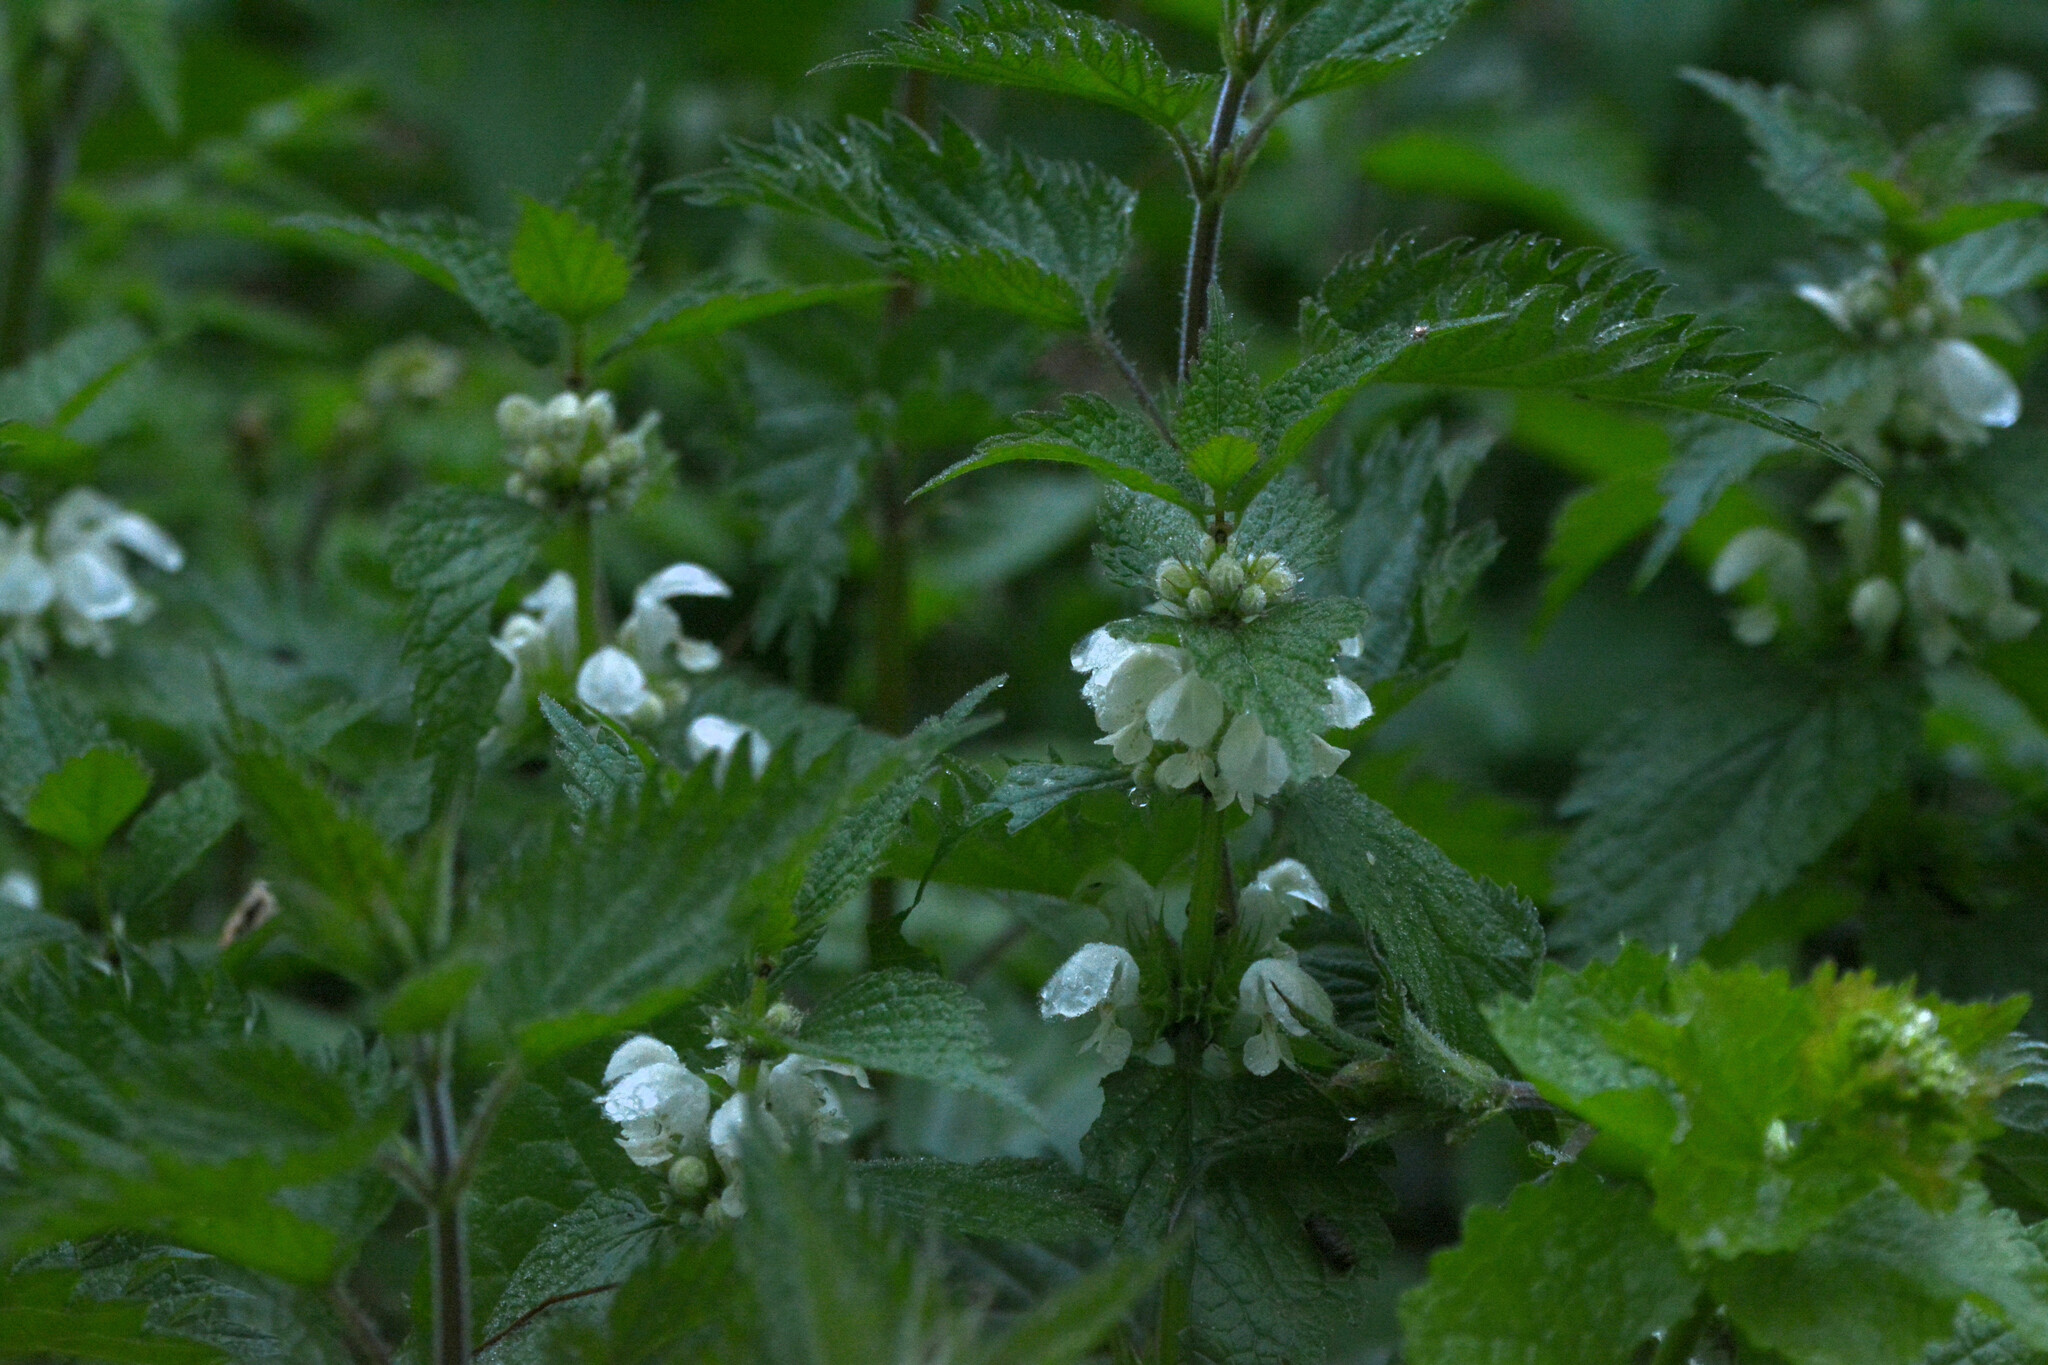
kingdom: Plantae
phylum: Tracheophyta
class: Magnoliopsida
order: Lamiales
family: Lamiaceae
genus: Lamium
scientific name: Lamium album
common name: White dead-nettle
